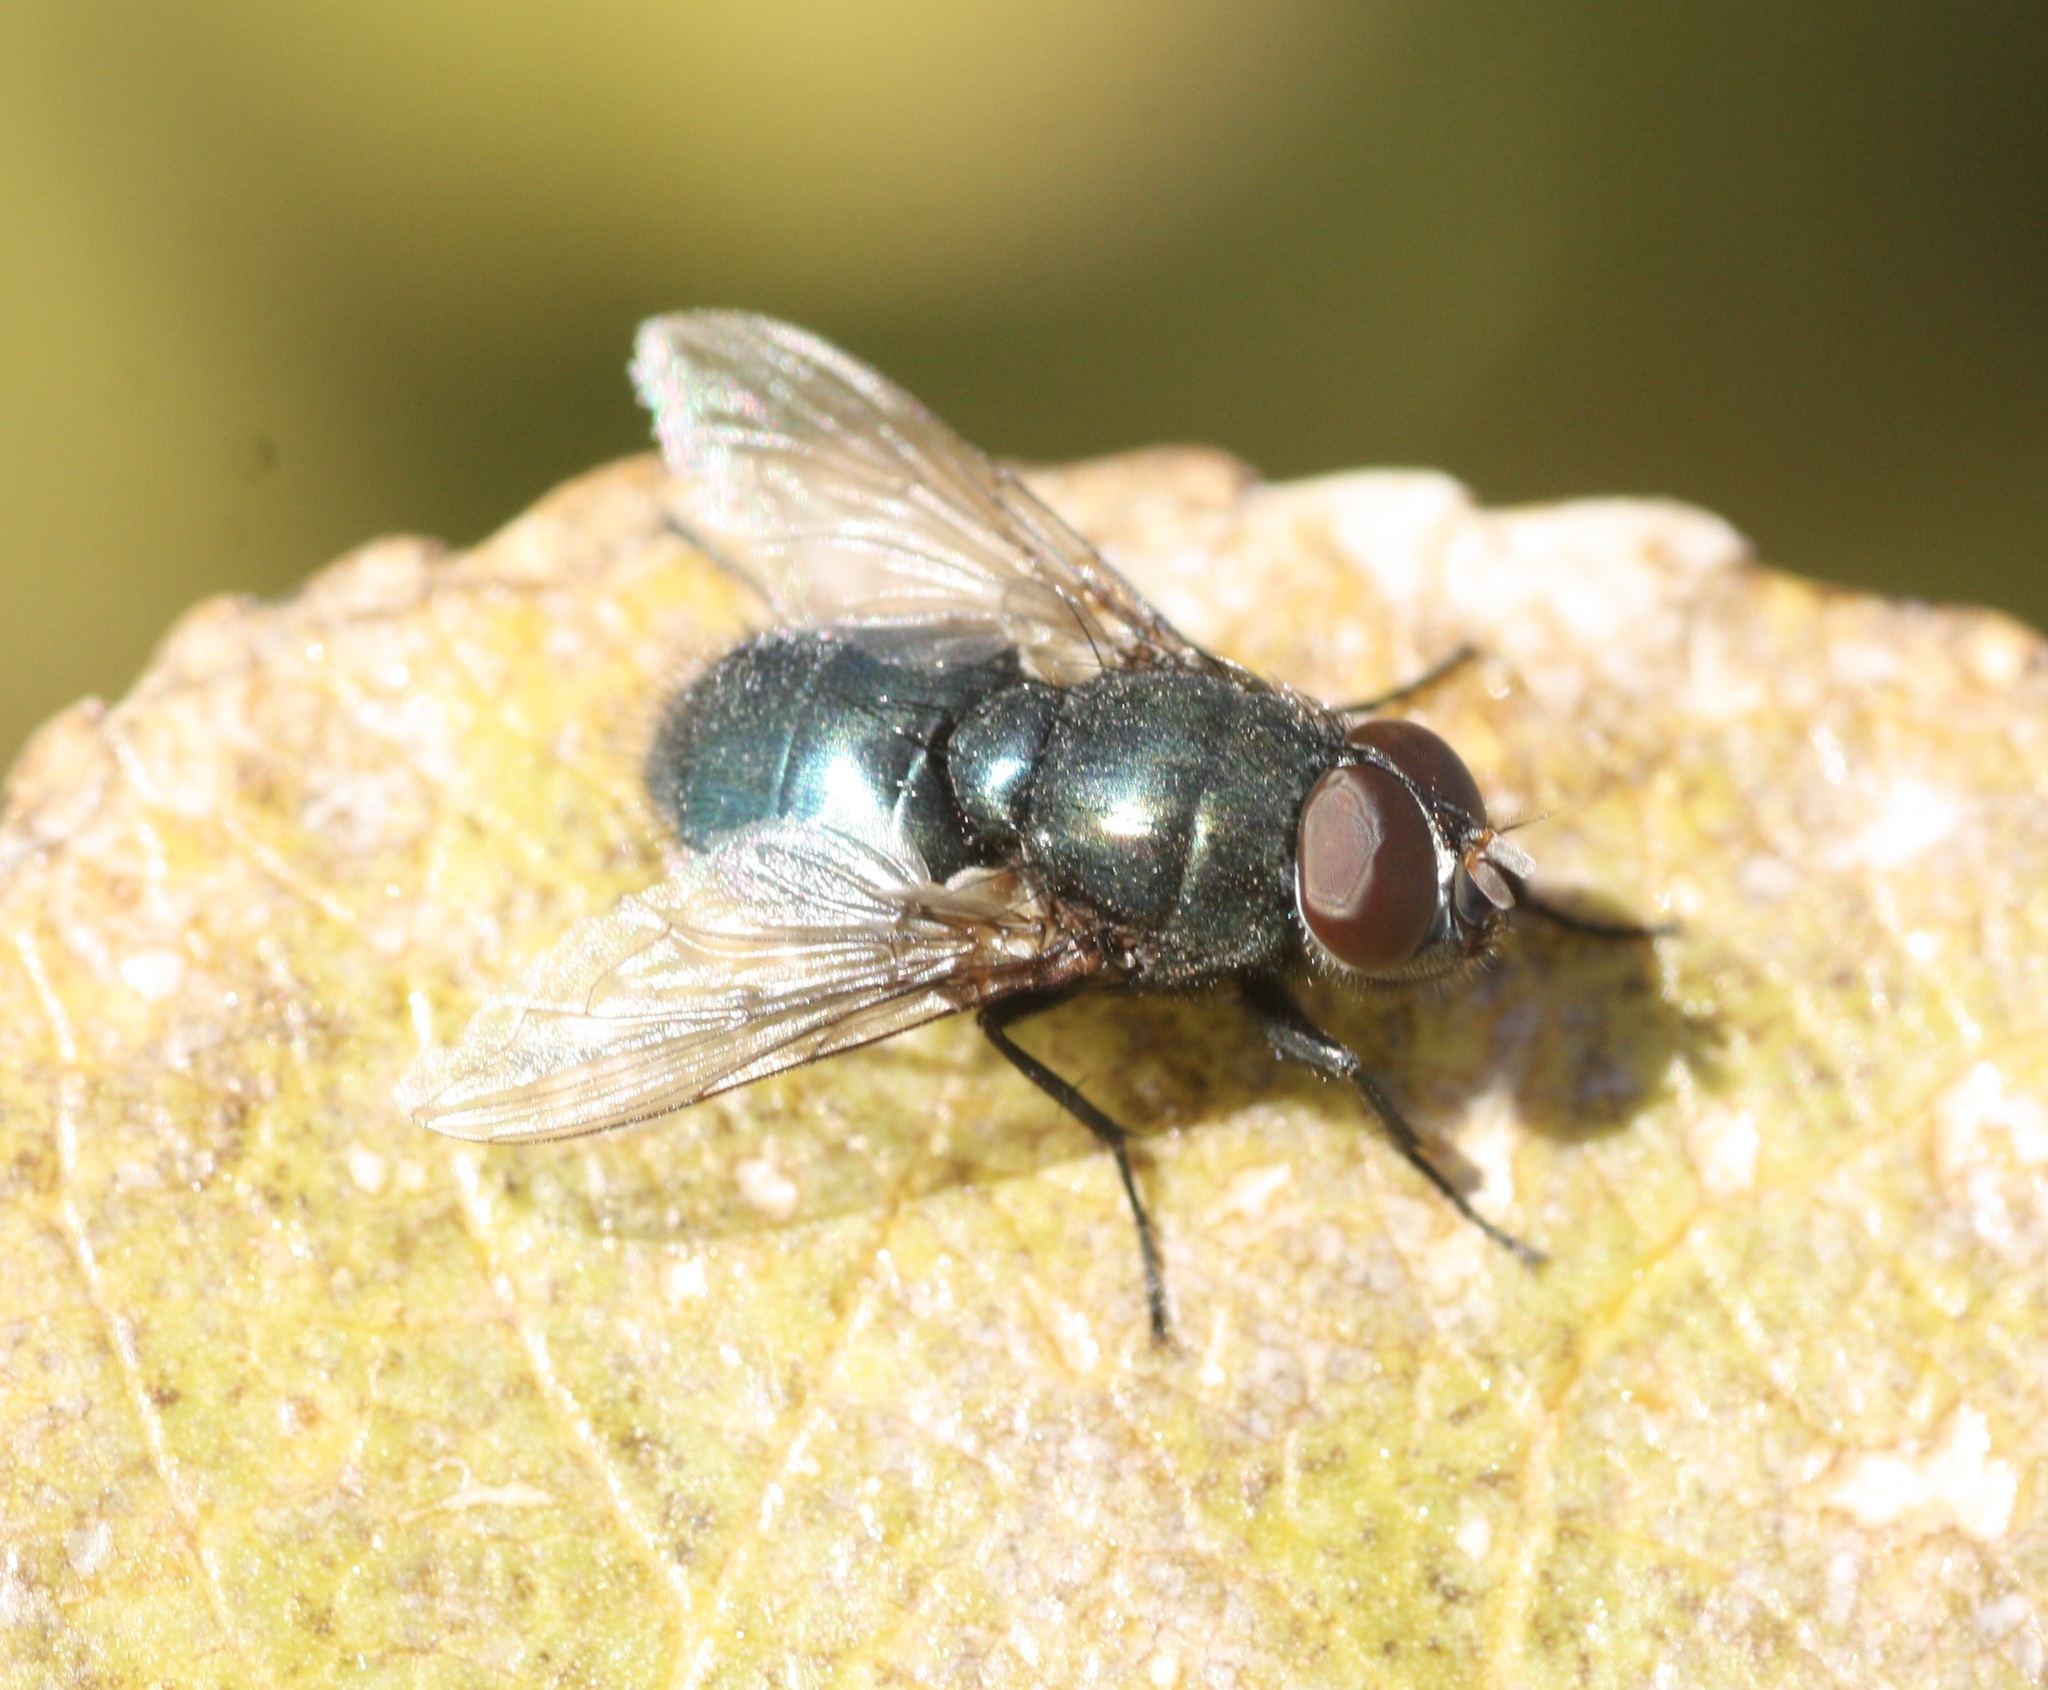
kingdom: Animalia
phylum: Arthropoda
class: Insecta
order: Diptera
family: Calliphoridae
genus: Phormia
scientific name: Phormia regina
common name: Black blow fly
